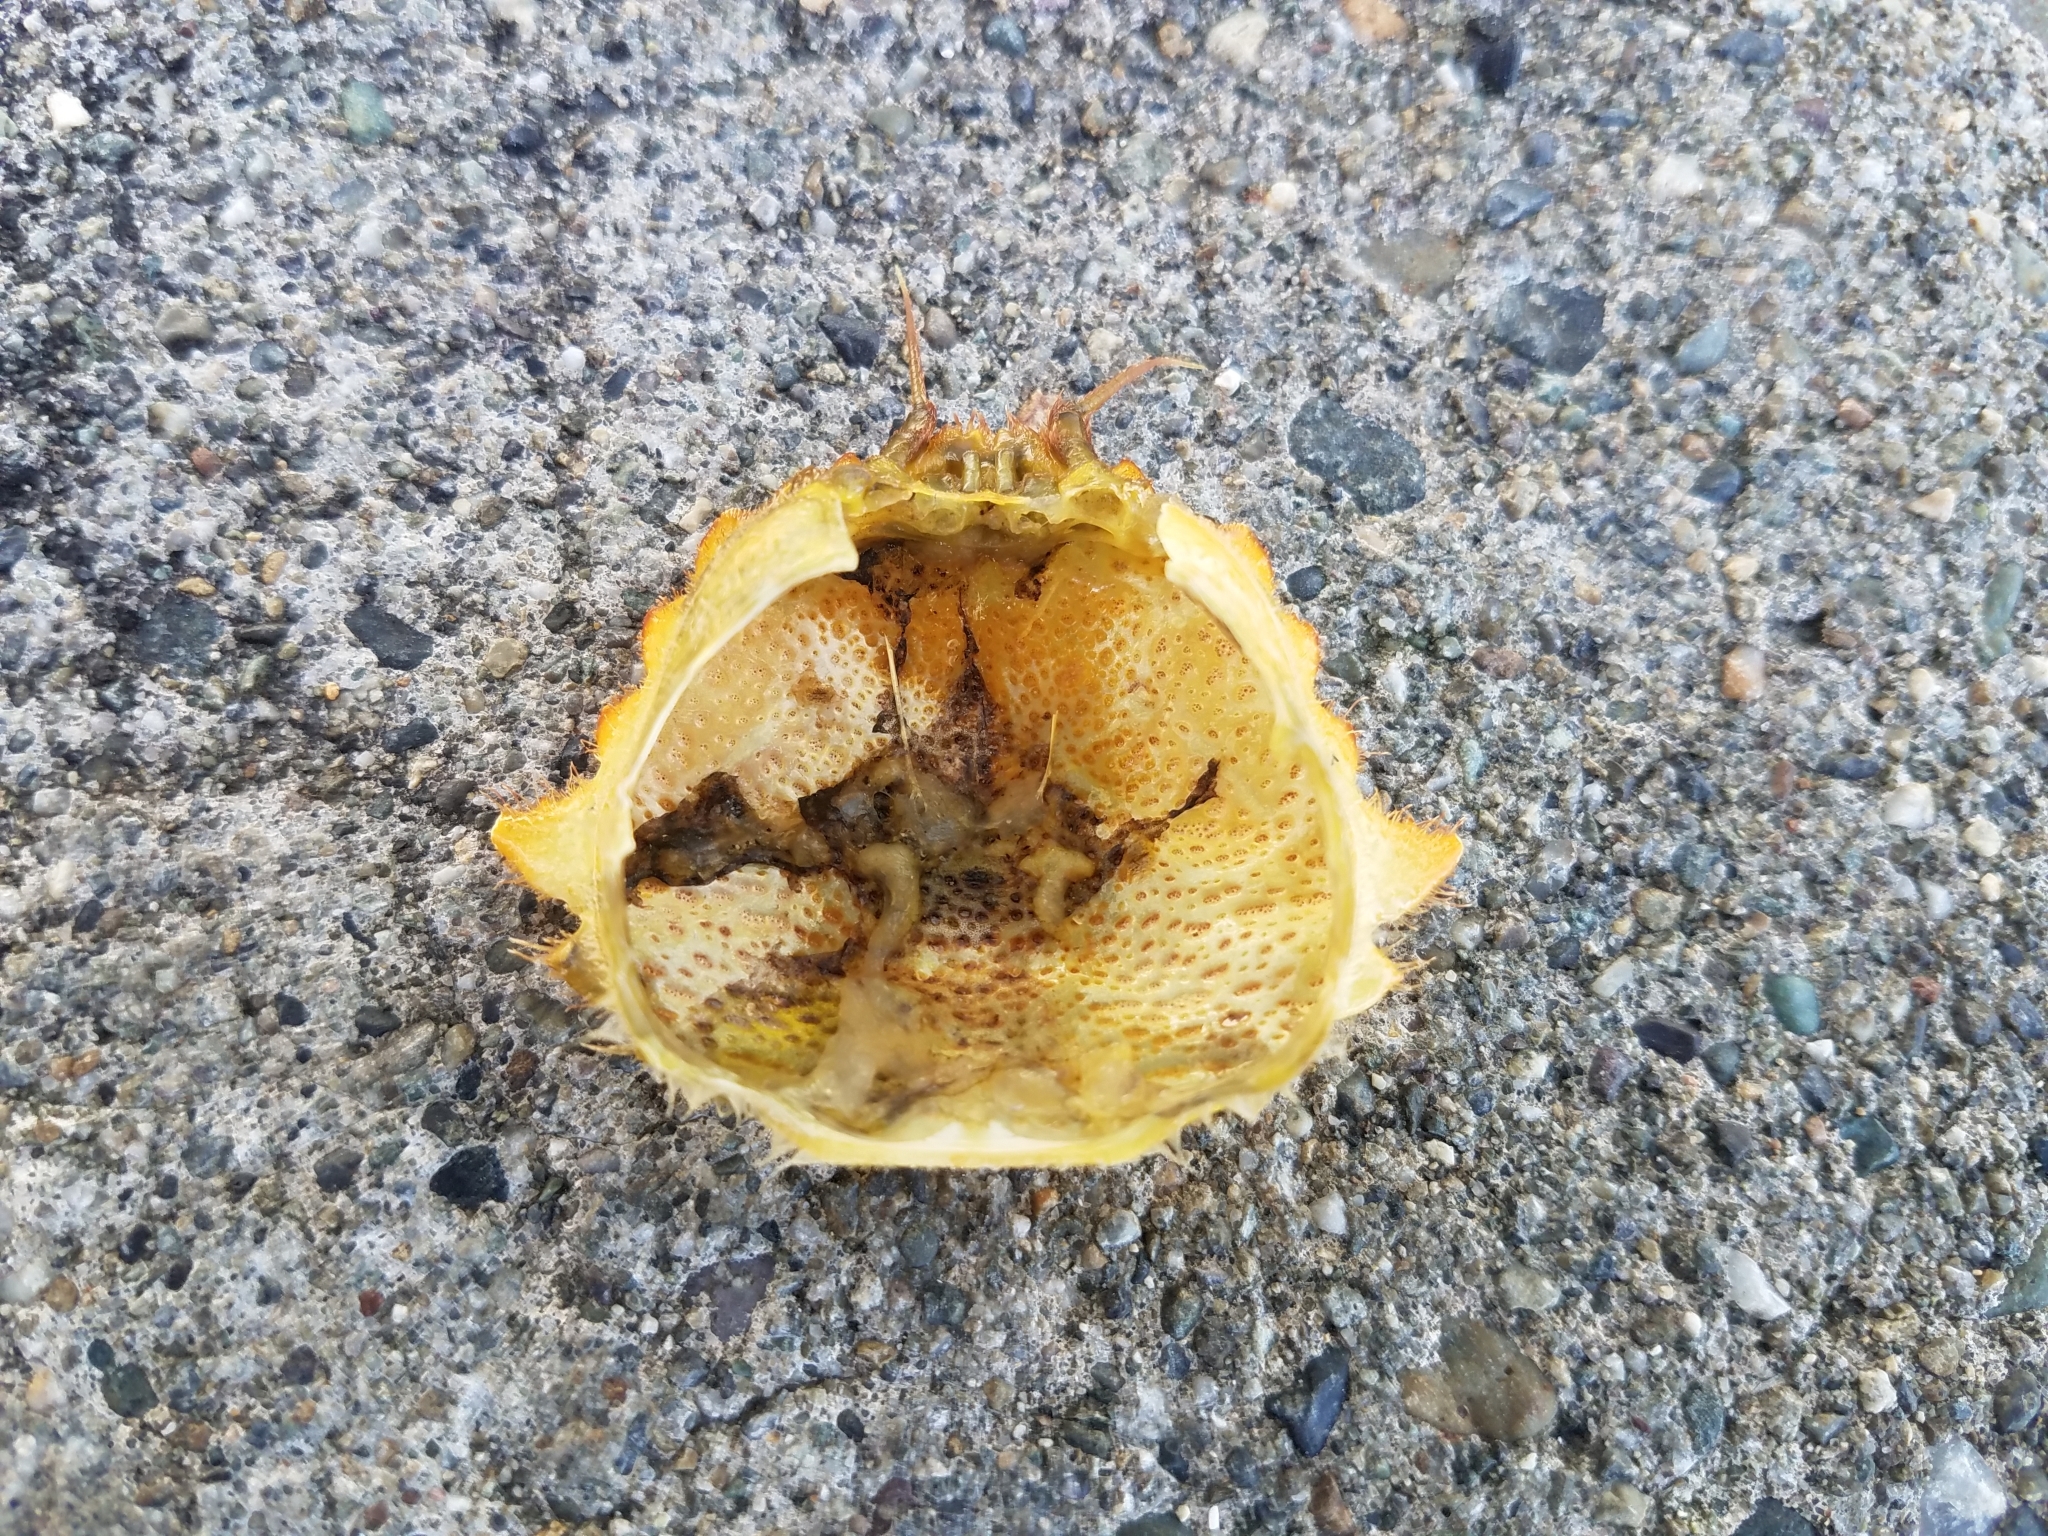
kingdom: Animalia
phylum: Arthropoda
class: Malacostraca
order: Decapoda
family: Cheiragonidae
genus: Telmessus
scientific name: Telmessus cheiragonus
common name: Helmet crab
